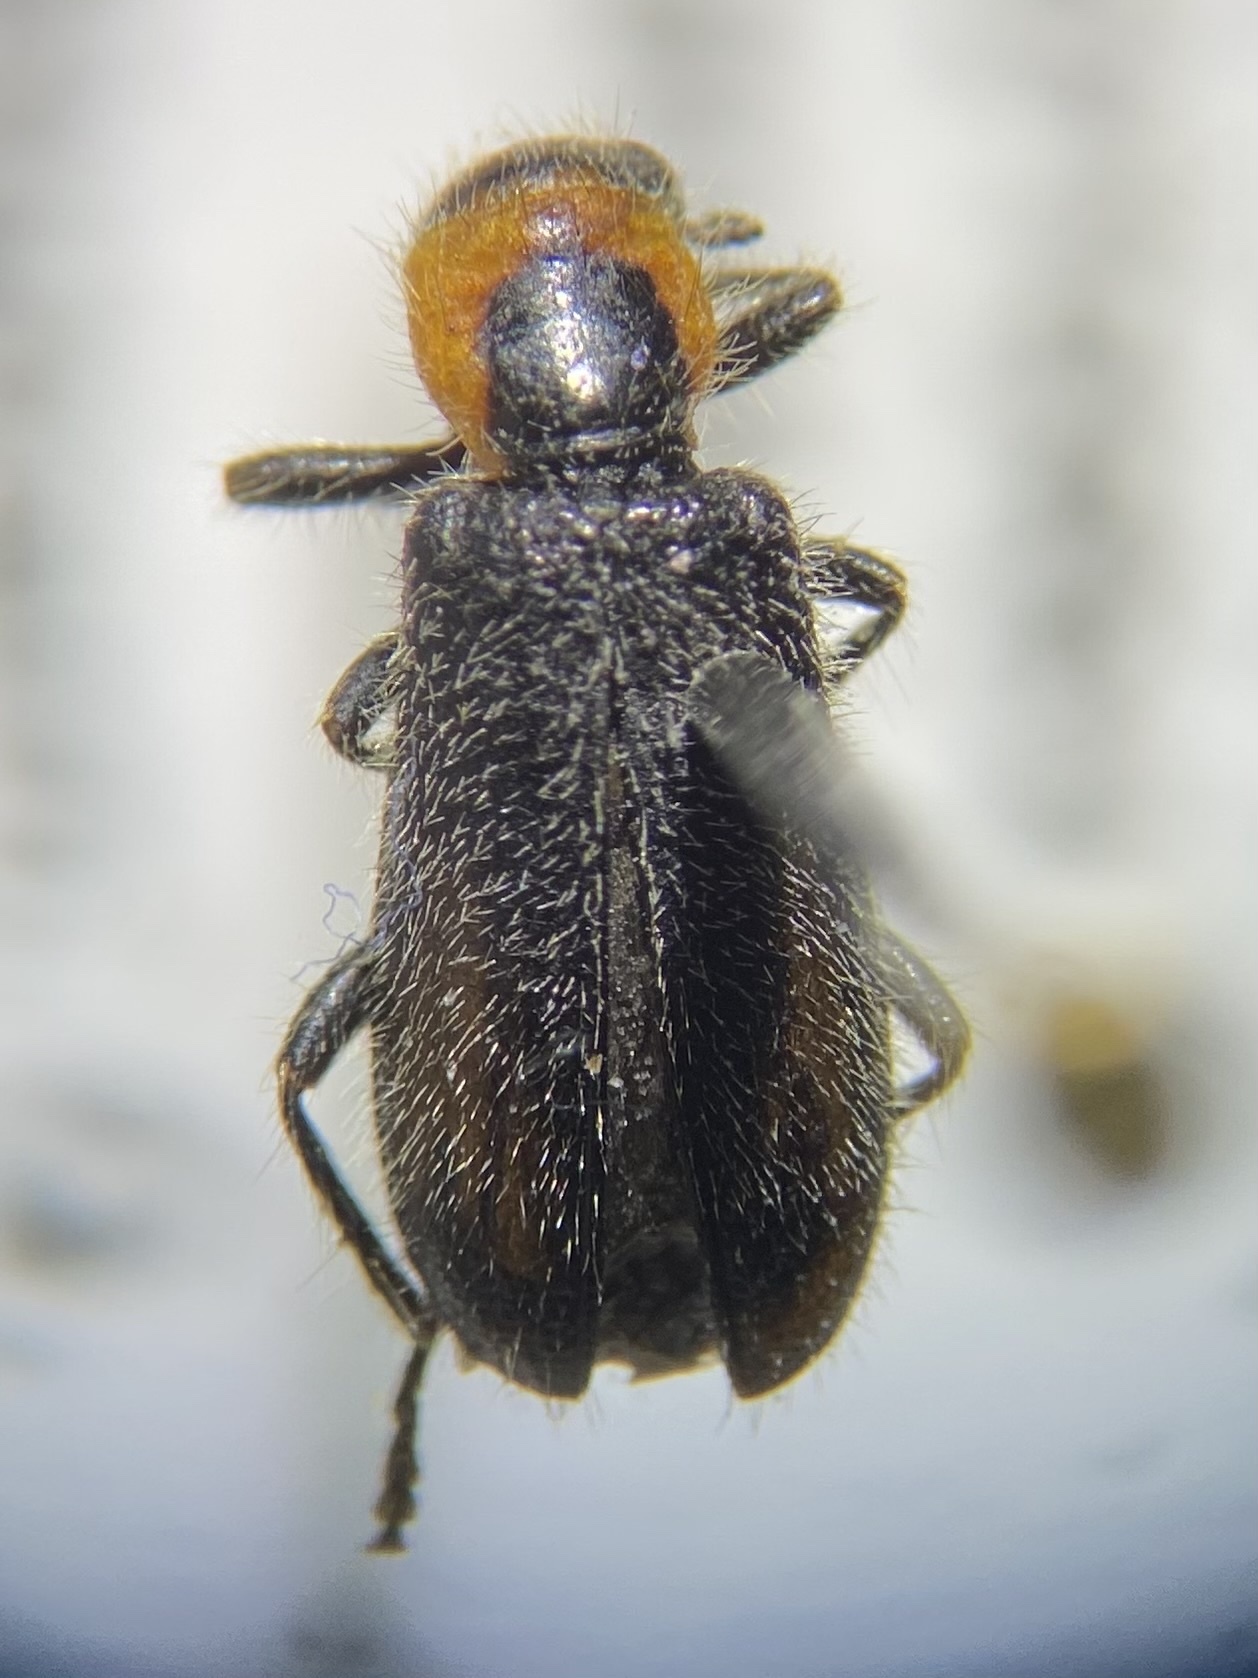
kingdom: Animalia
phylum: Arthropoda
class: Insecta
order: Coleoptera
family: Cleridae
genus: Placopterus
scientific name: Placopterus thoracicus
